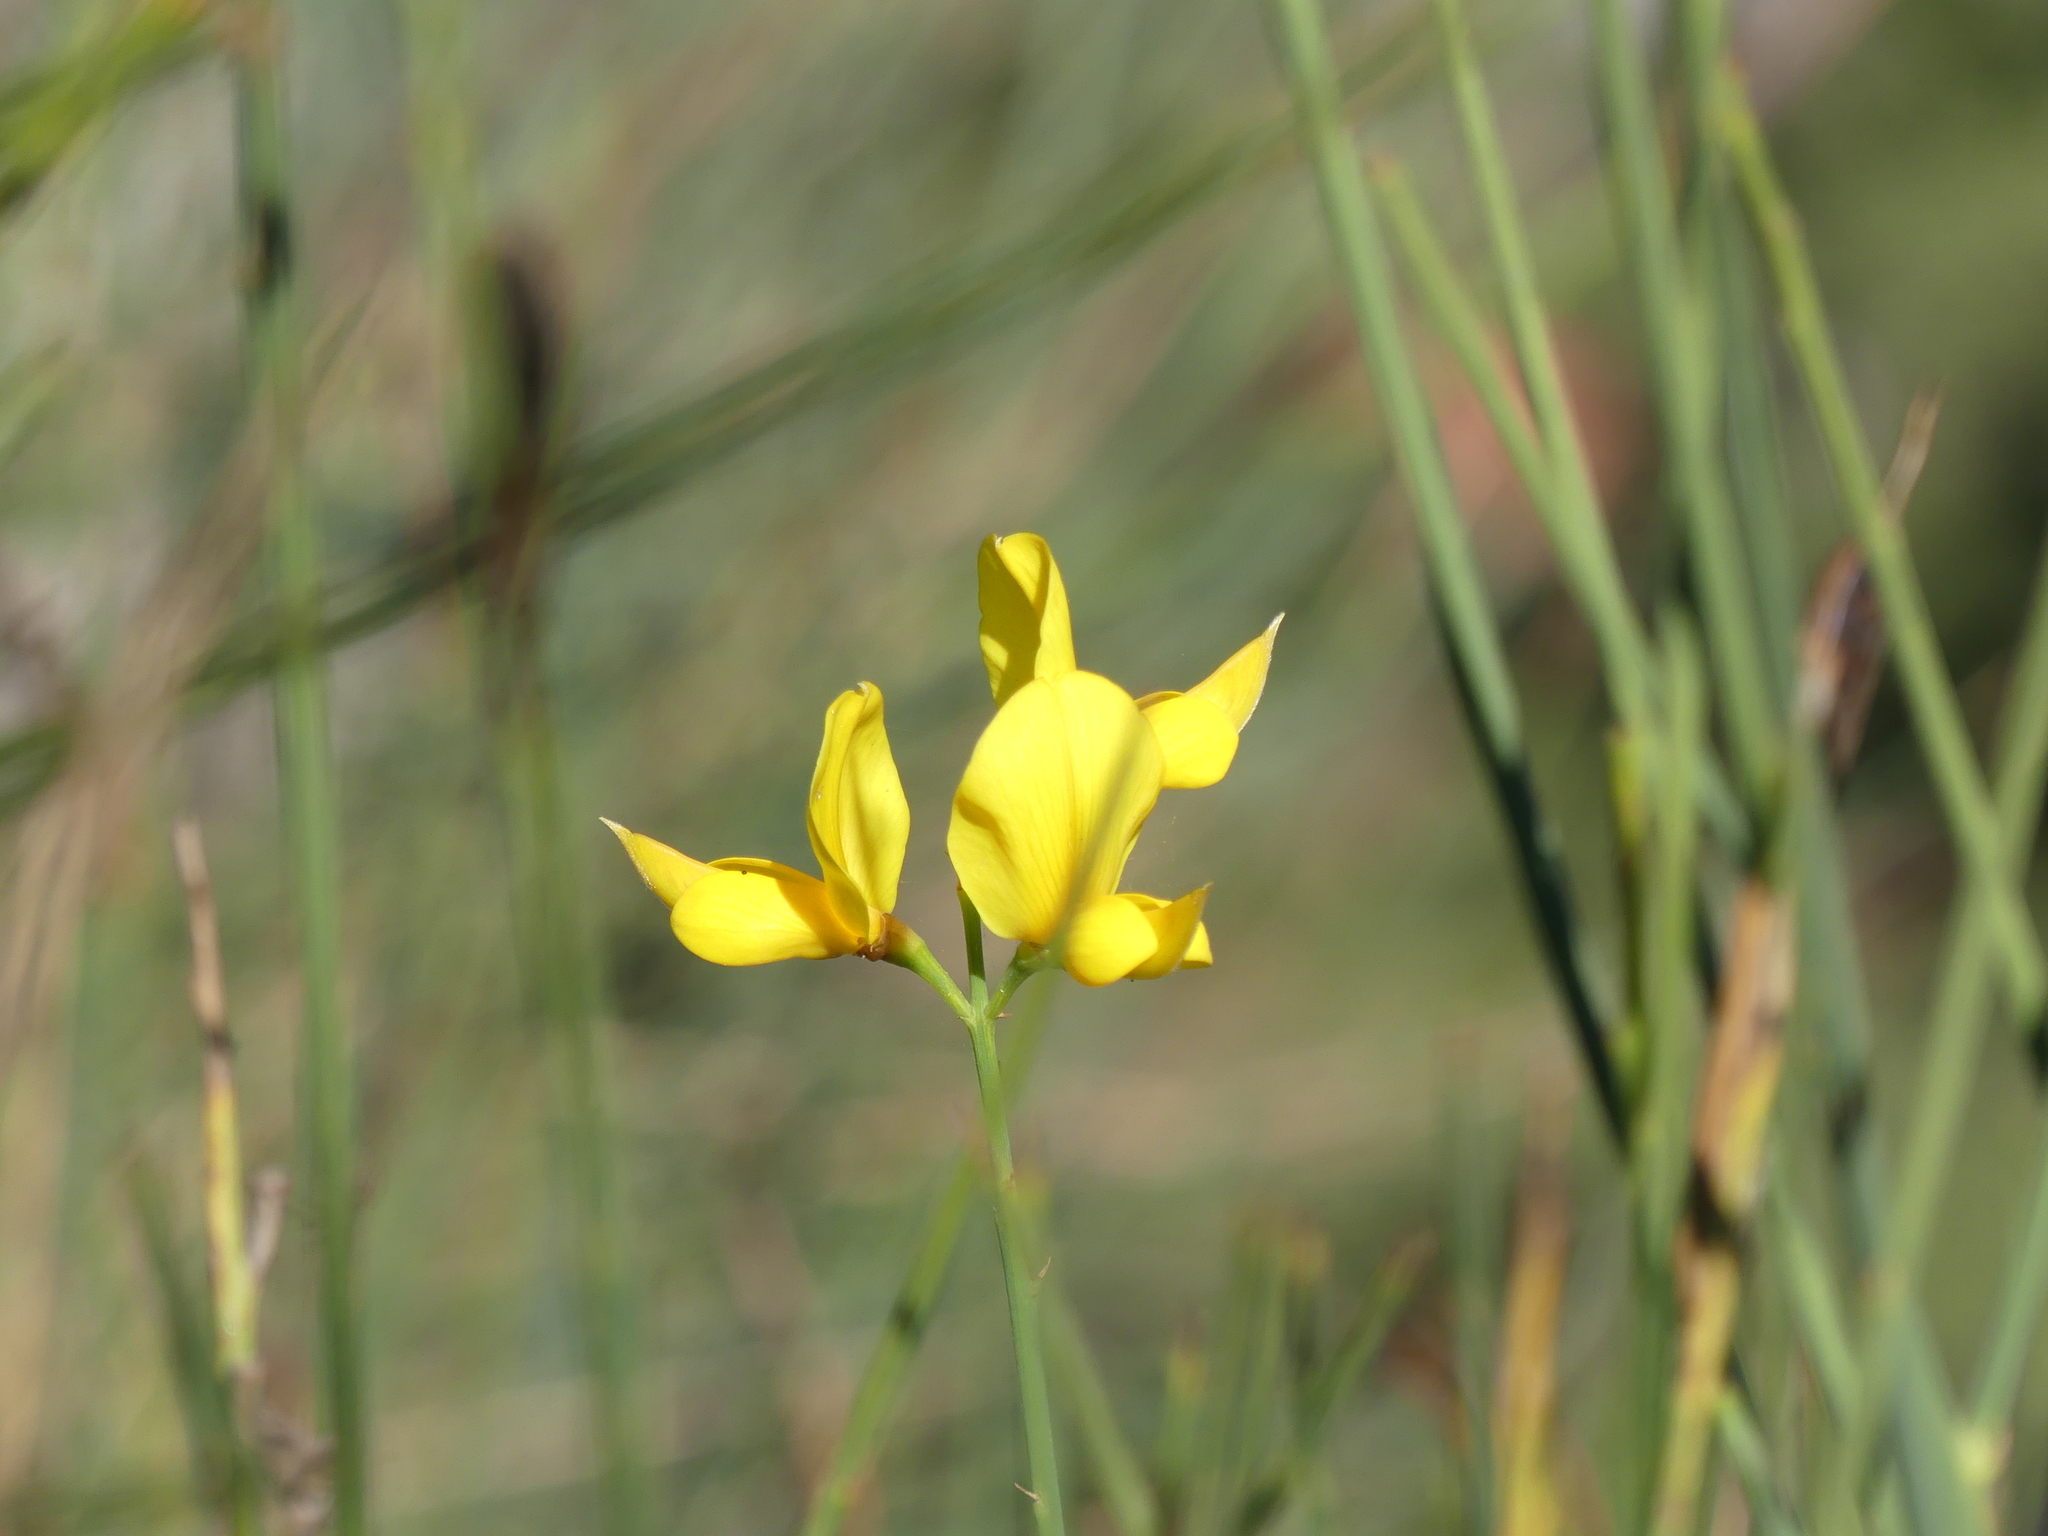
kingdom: Plantae
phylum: Tracheophyta
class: Magnoliopsida
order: Fabales
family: Fabaceae
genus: Spartium
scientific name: Spartium junceum
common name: Spanish broom
